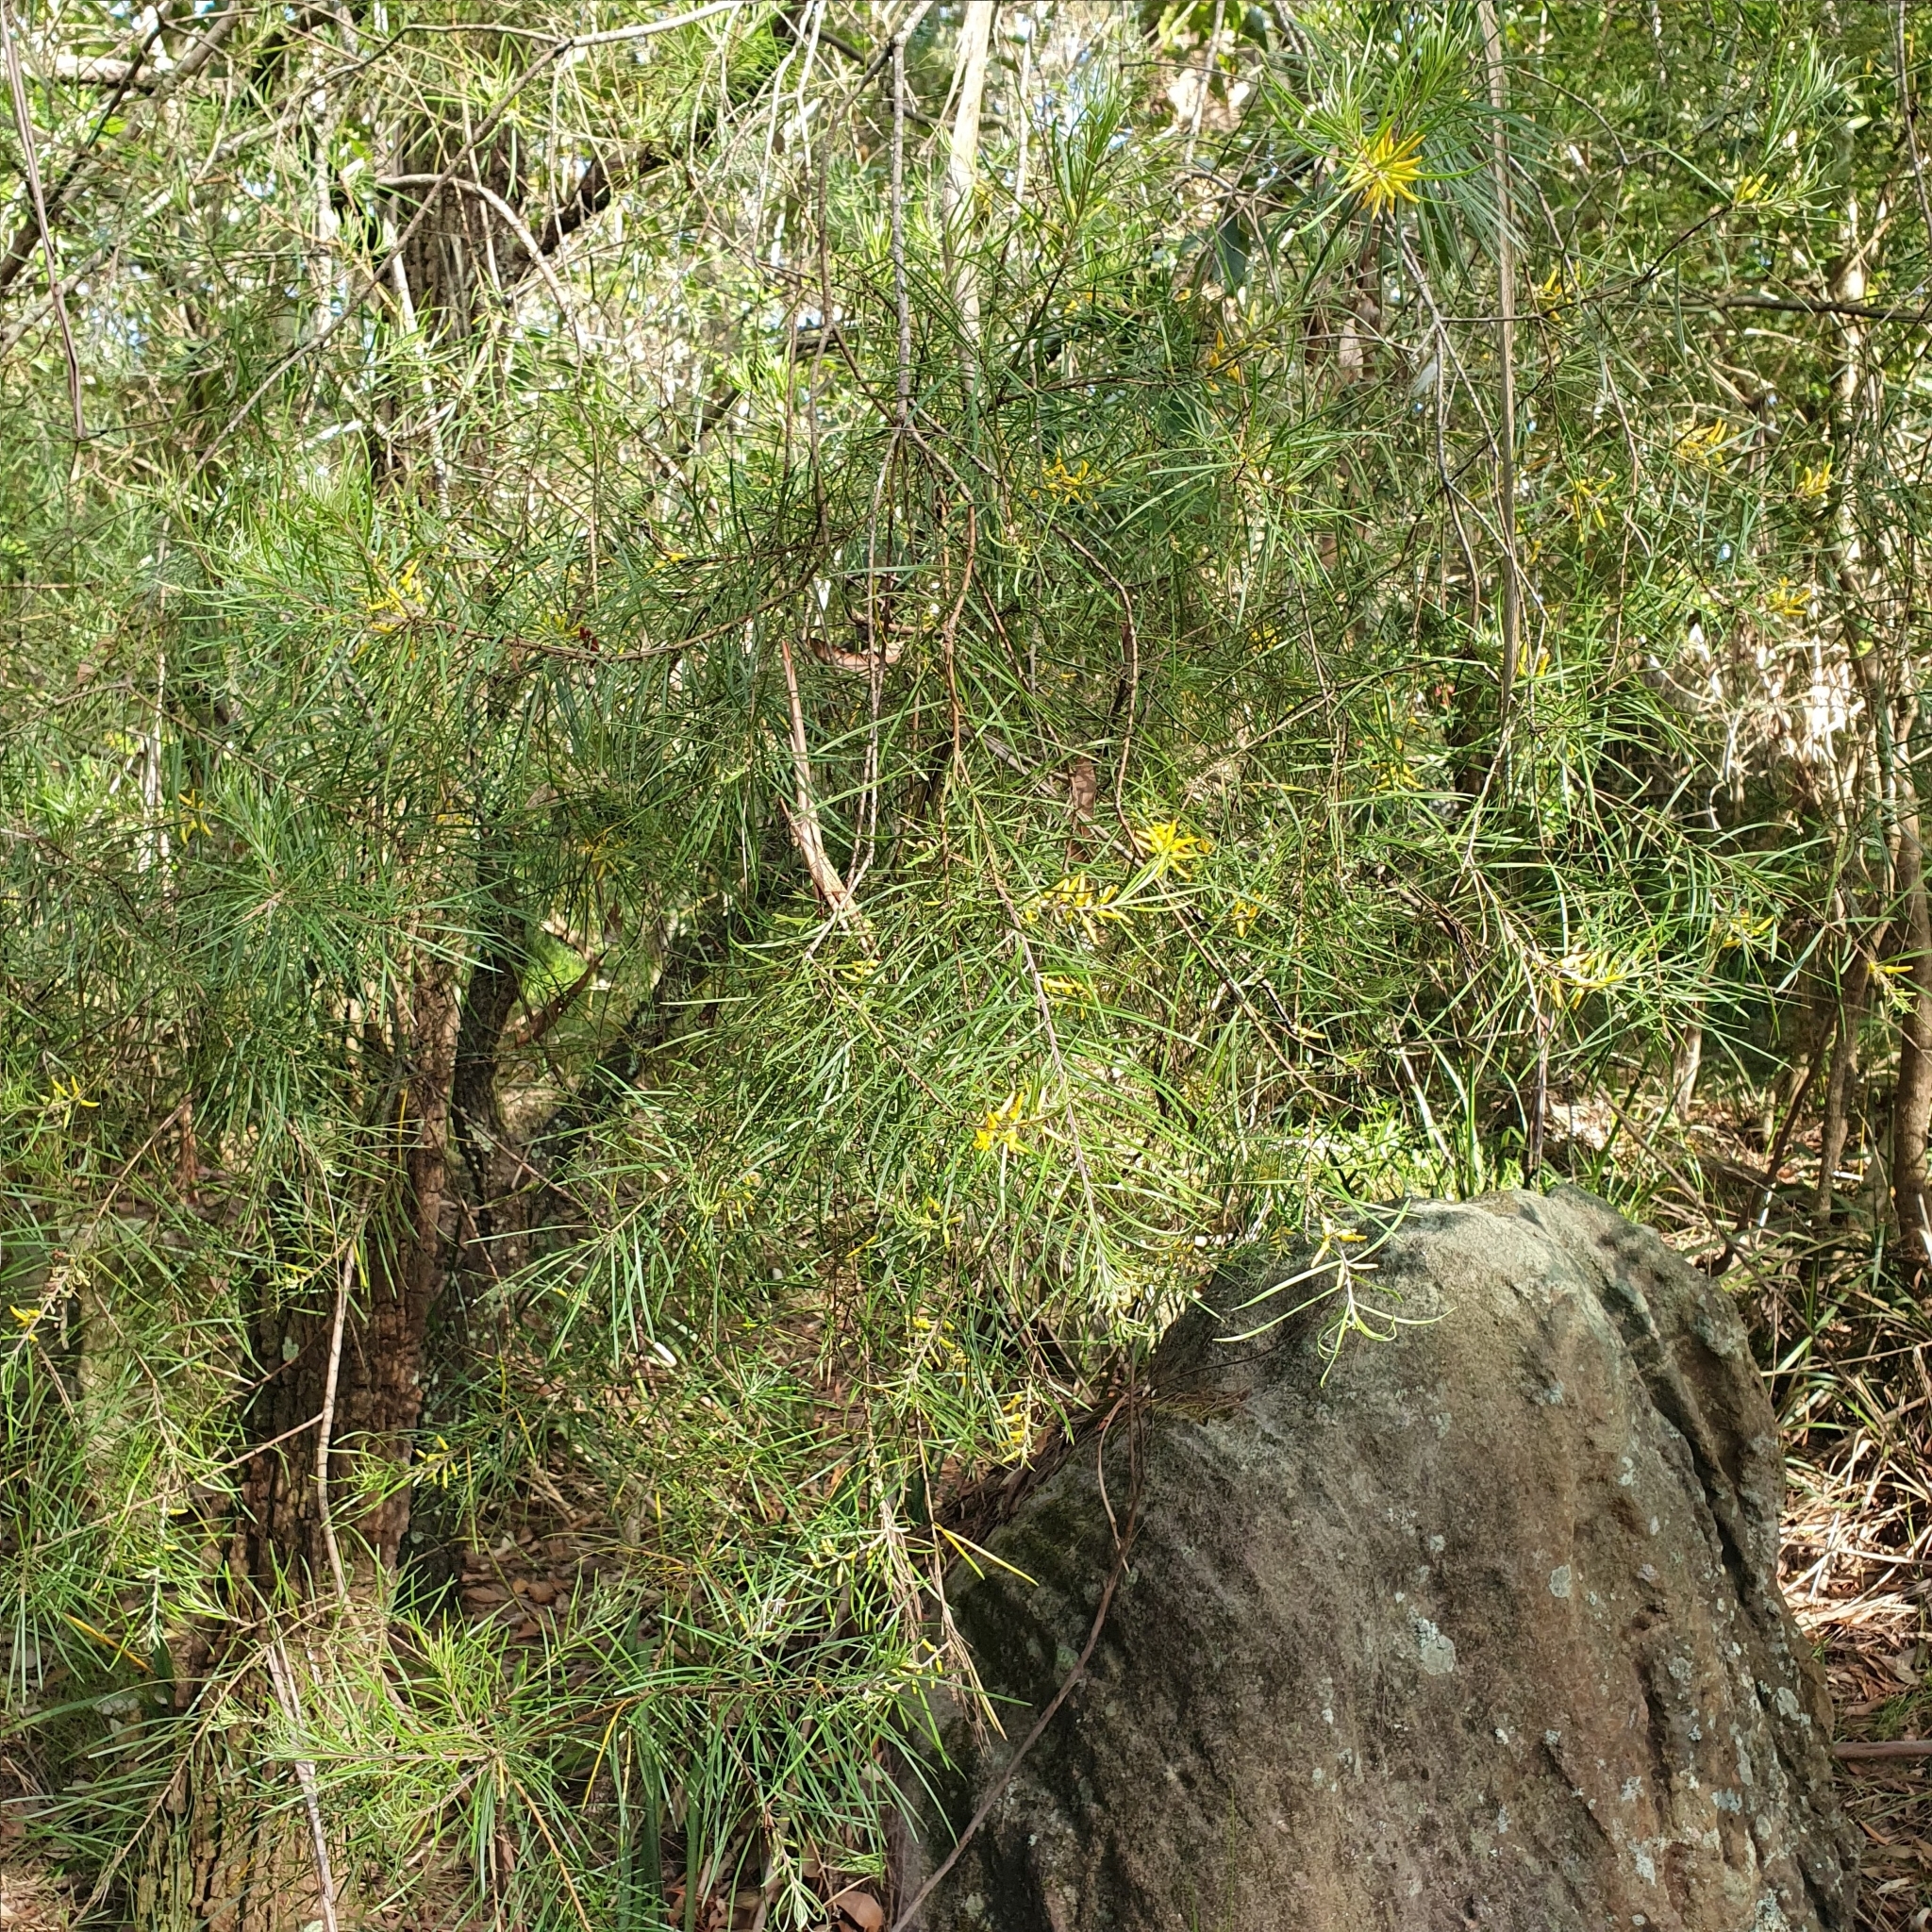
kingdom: Plantae
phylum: Tracheophyta
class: Magnoliopsida
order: Proteales
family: Proteaceae
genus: Persoonia
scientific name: Persoonia linearis
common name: Narrow-leaf geebung
